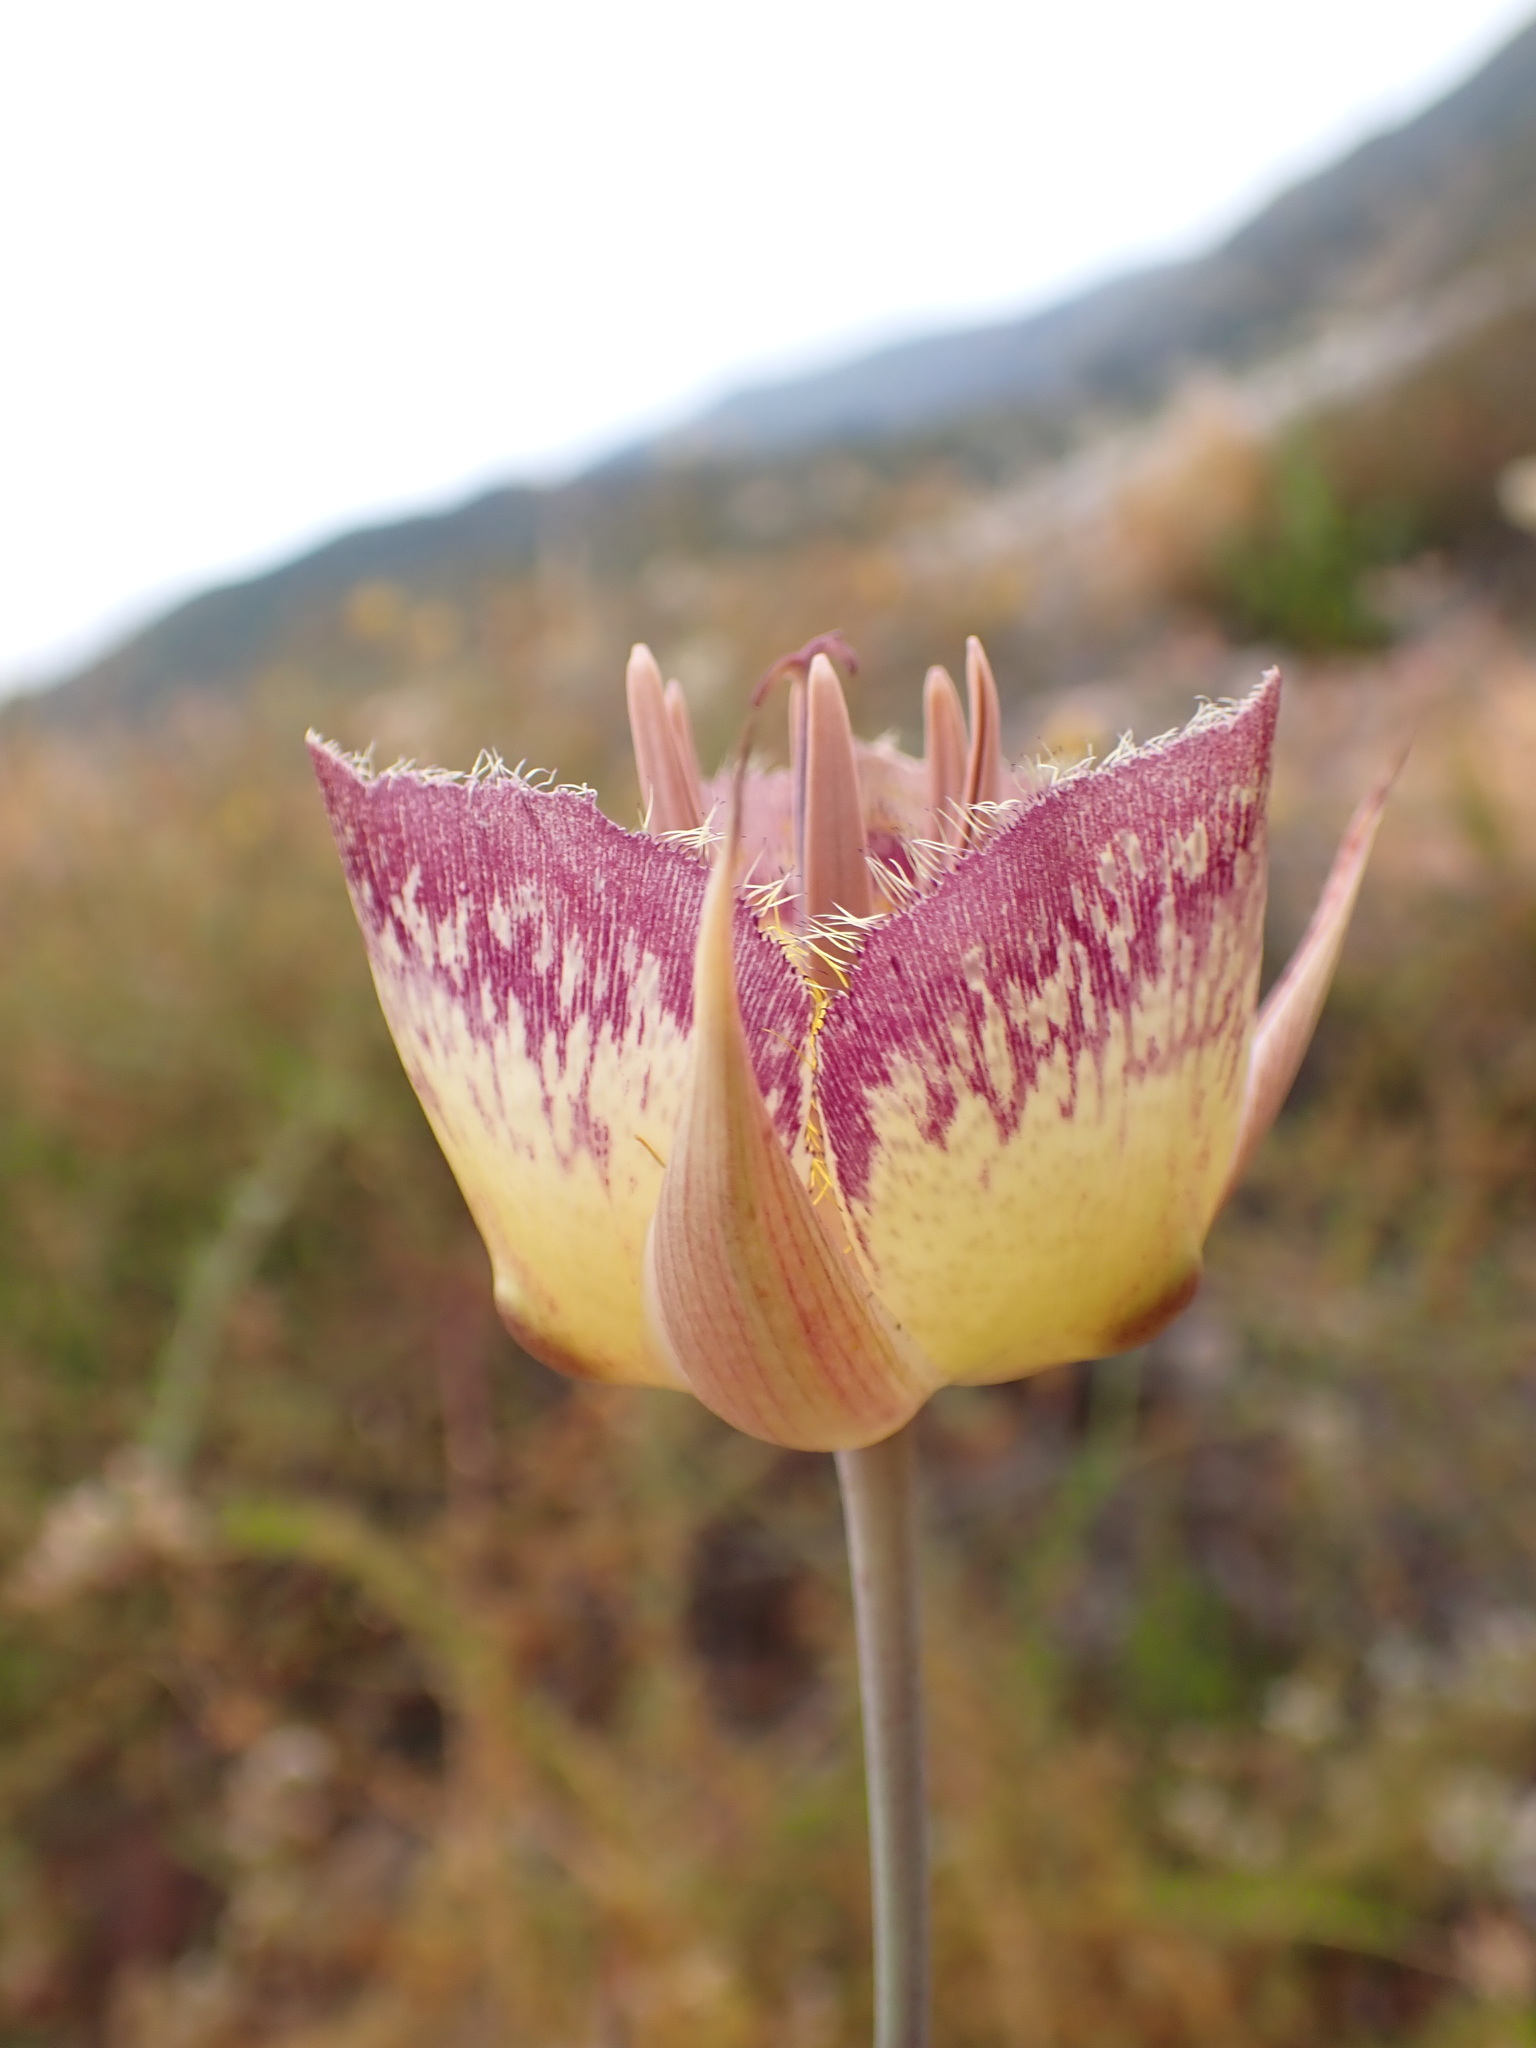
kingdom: Plantae
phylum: Tracheophyta
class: Liliopsida
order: Liliales
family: Liliaceae
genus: Calochortus
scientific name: Calochortus weedii
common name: Weed's mariposa-lily
